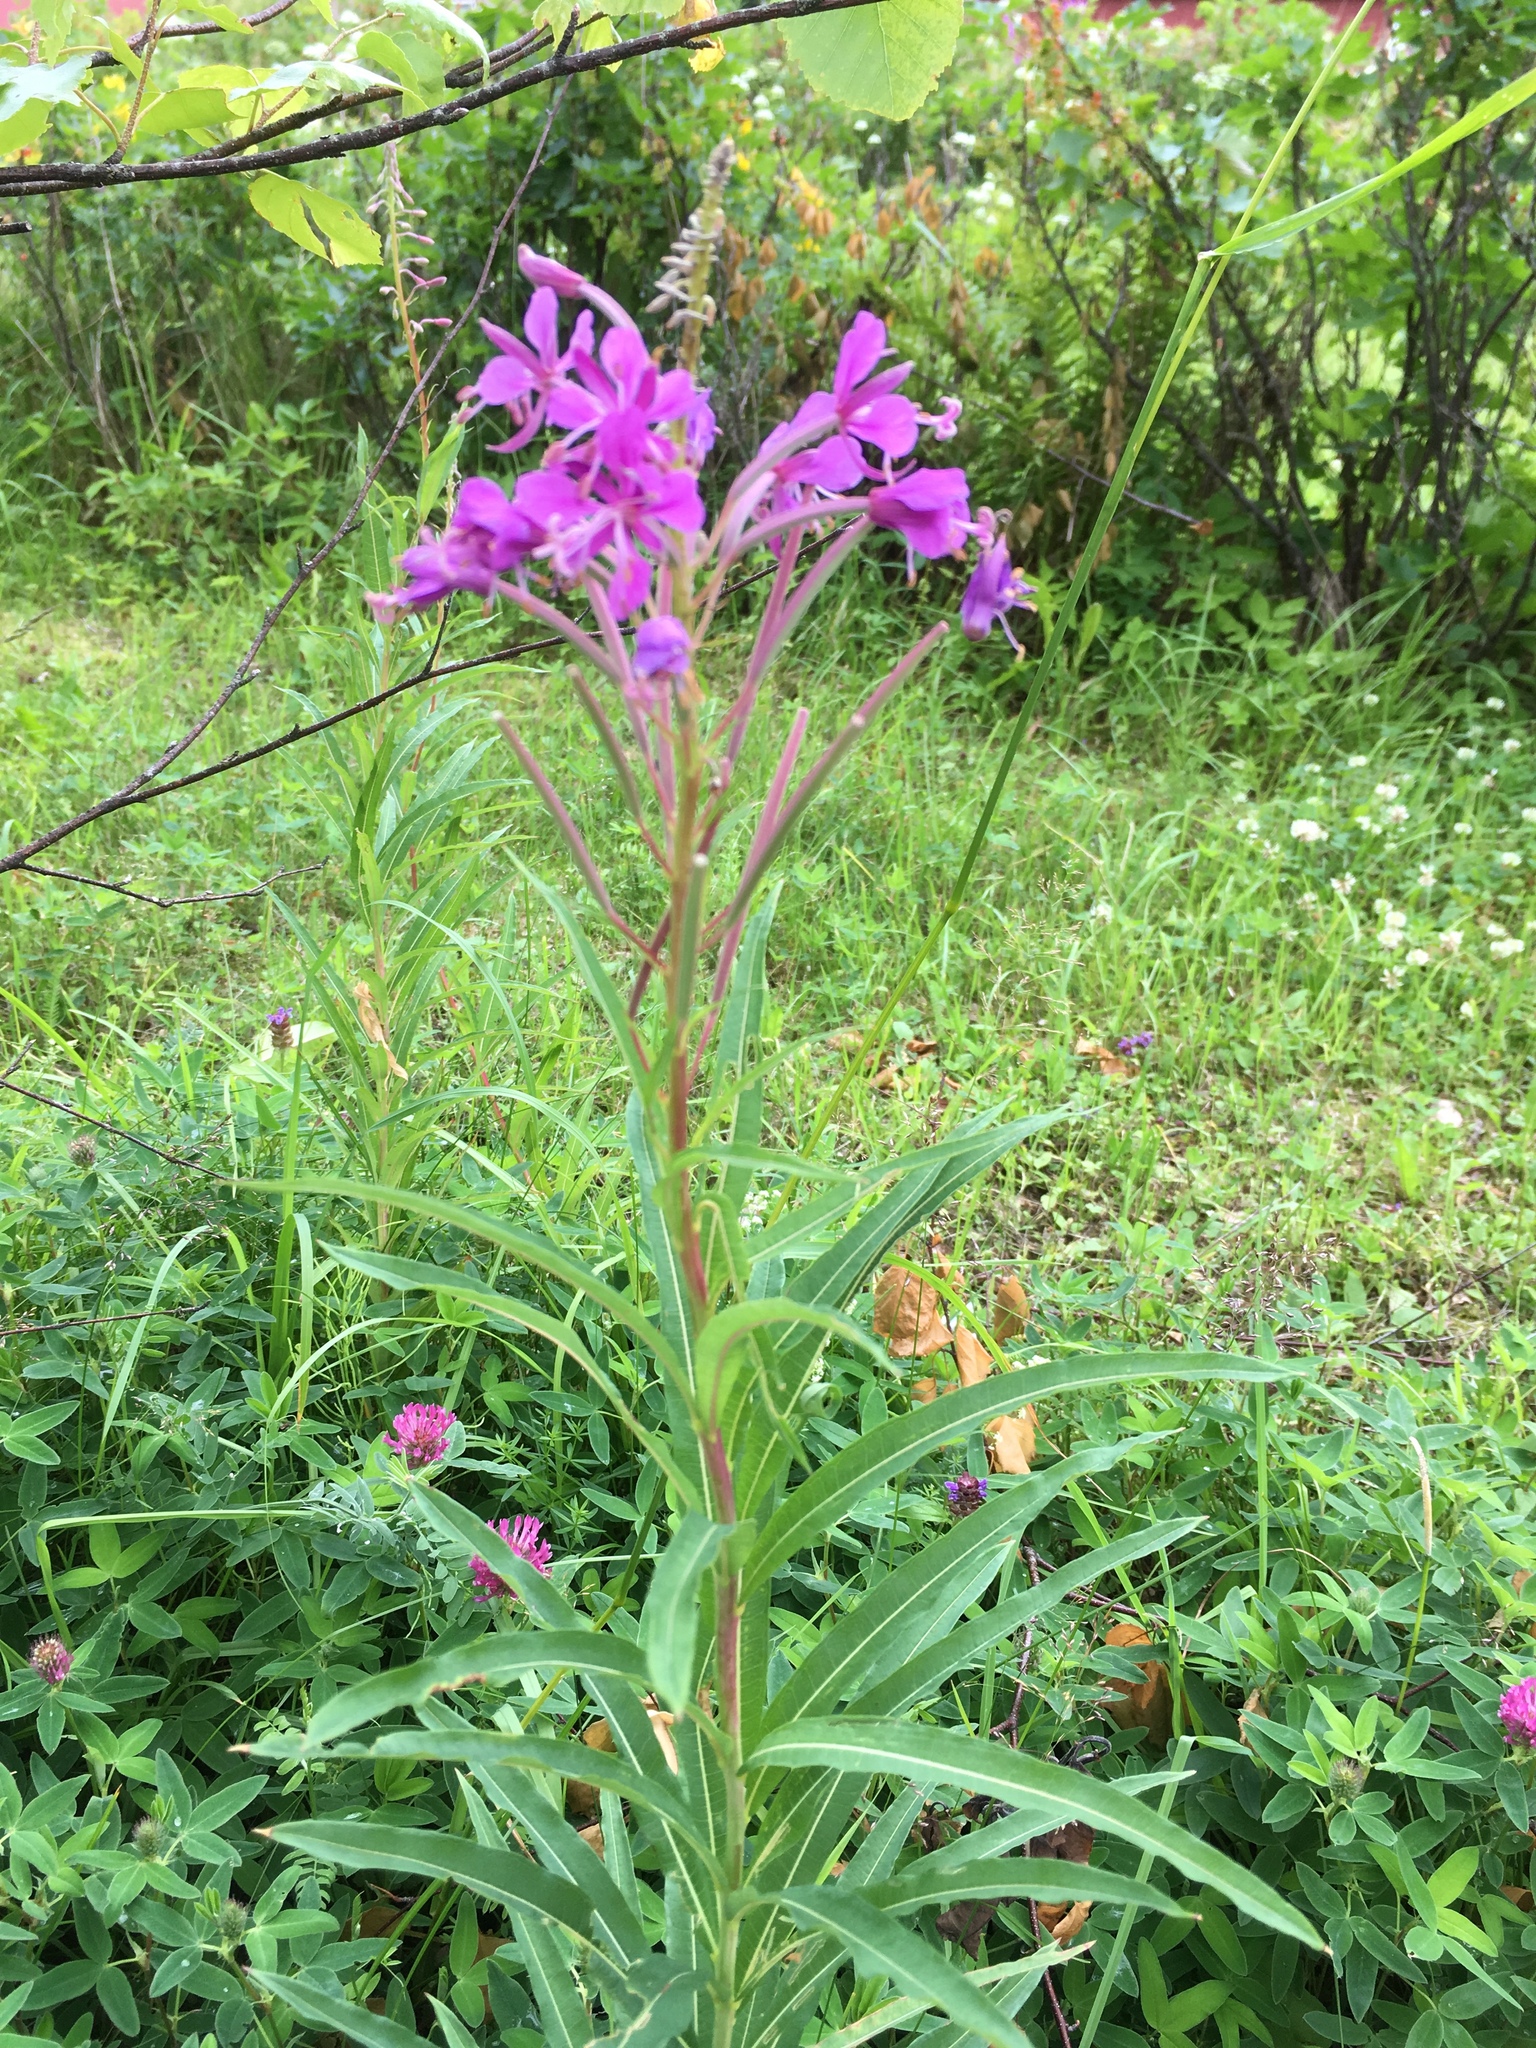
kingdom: Plantae
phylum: Tracheophyta
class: Magnoliopsida
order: Myrtales
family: Onagraceae
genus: Chamaenerion
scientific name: Chamaenerion angustifolium
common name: Fireweed
